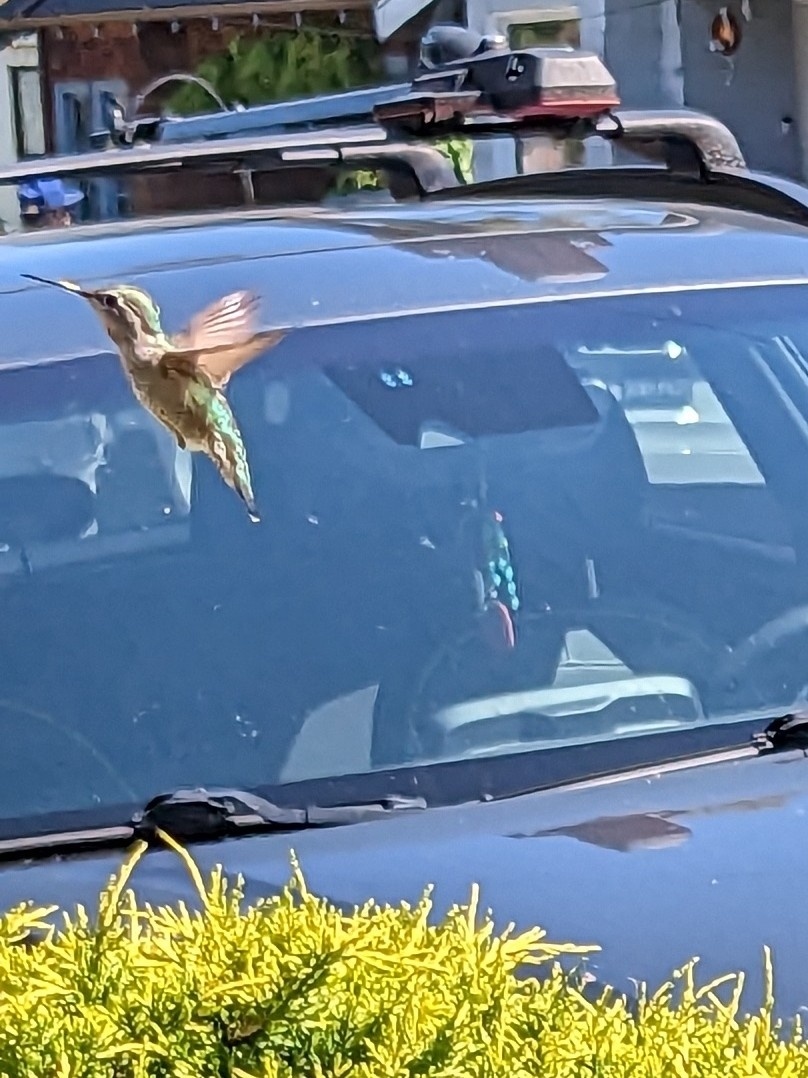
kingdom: Animalia
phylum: Chordata
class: Aves
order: Apodiformes
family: Trochilidae
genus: Calypte
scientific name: Calypte anna
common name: Anna's hummingbird
